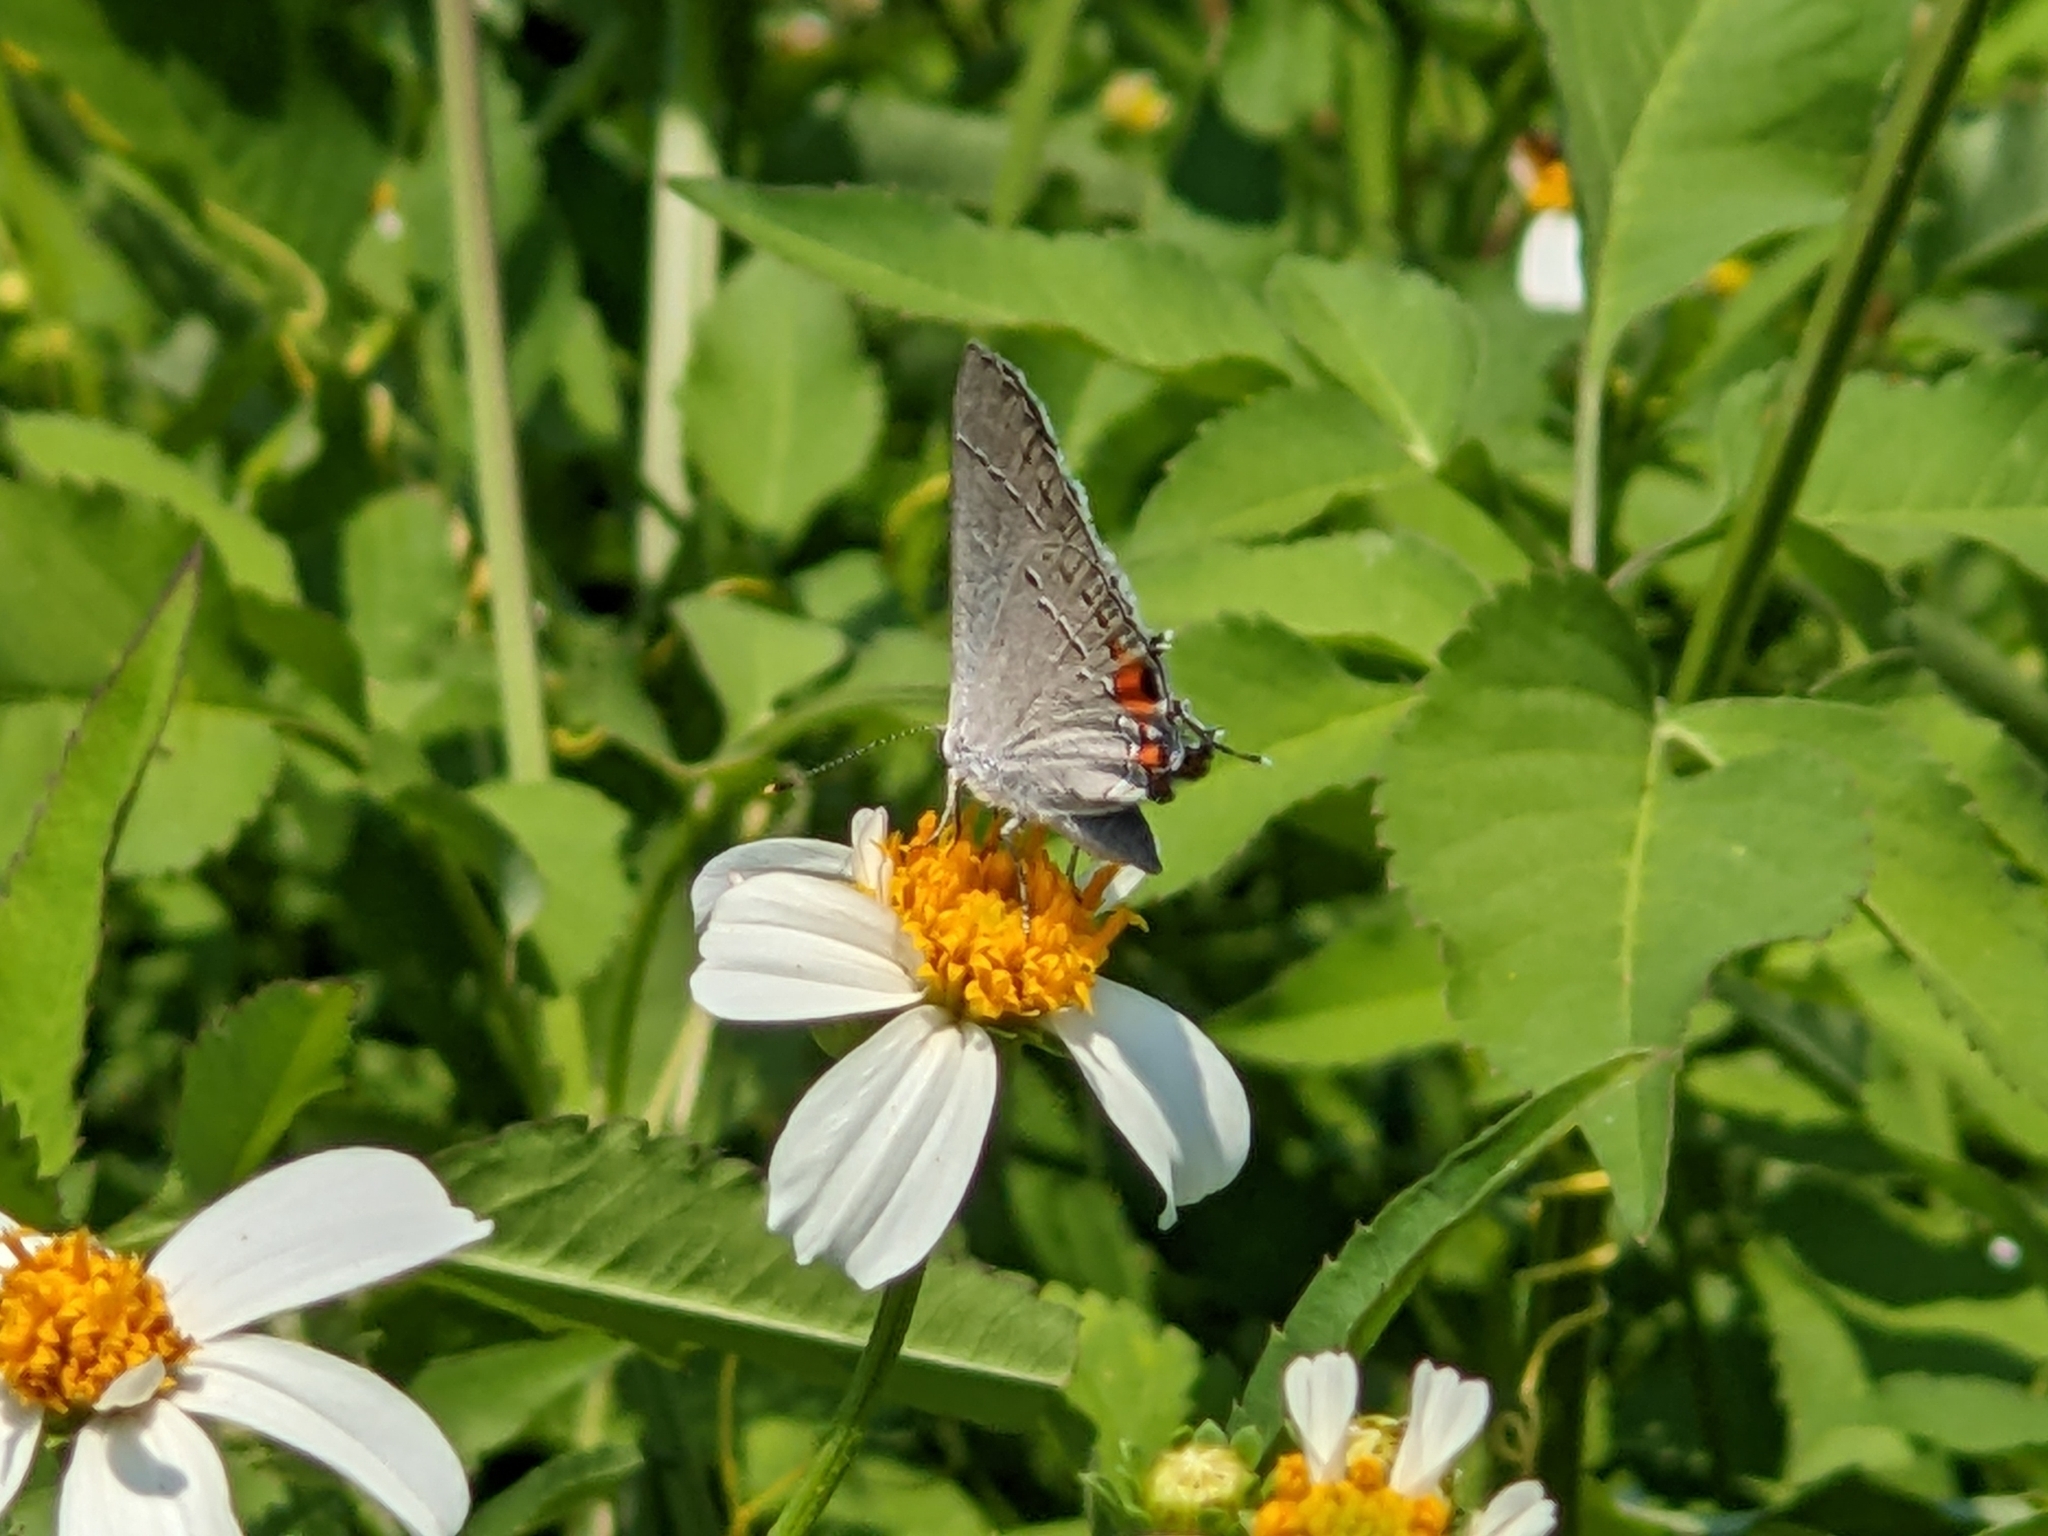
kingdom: Animalia
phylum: Arthropoda
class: Insecta
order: Lepidoptera
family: Lycaenidae
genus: Strymon
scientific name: Strymon melinus
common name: Gray hairstreak
